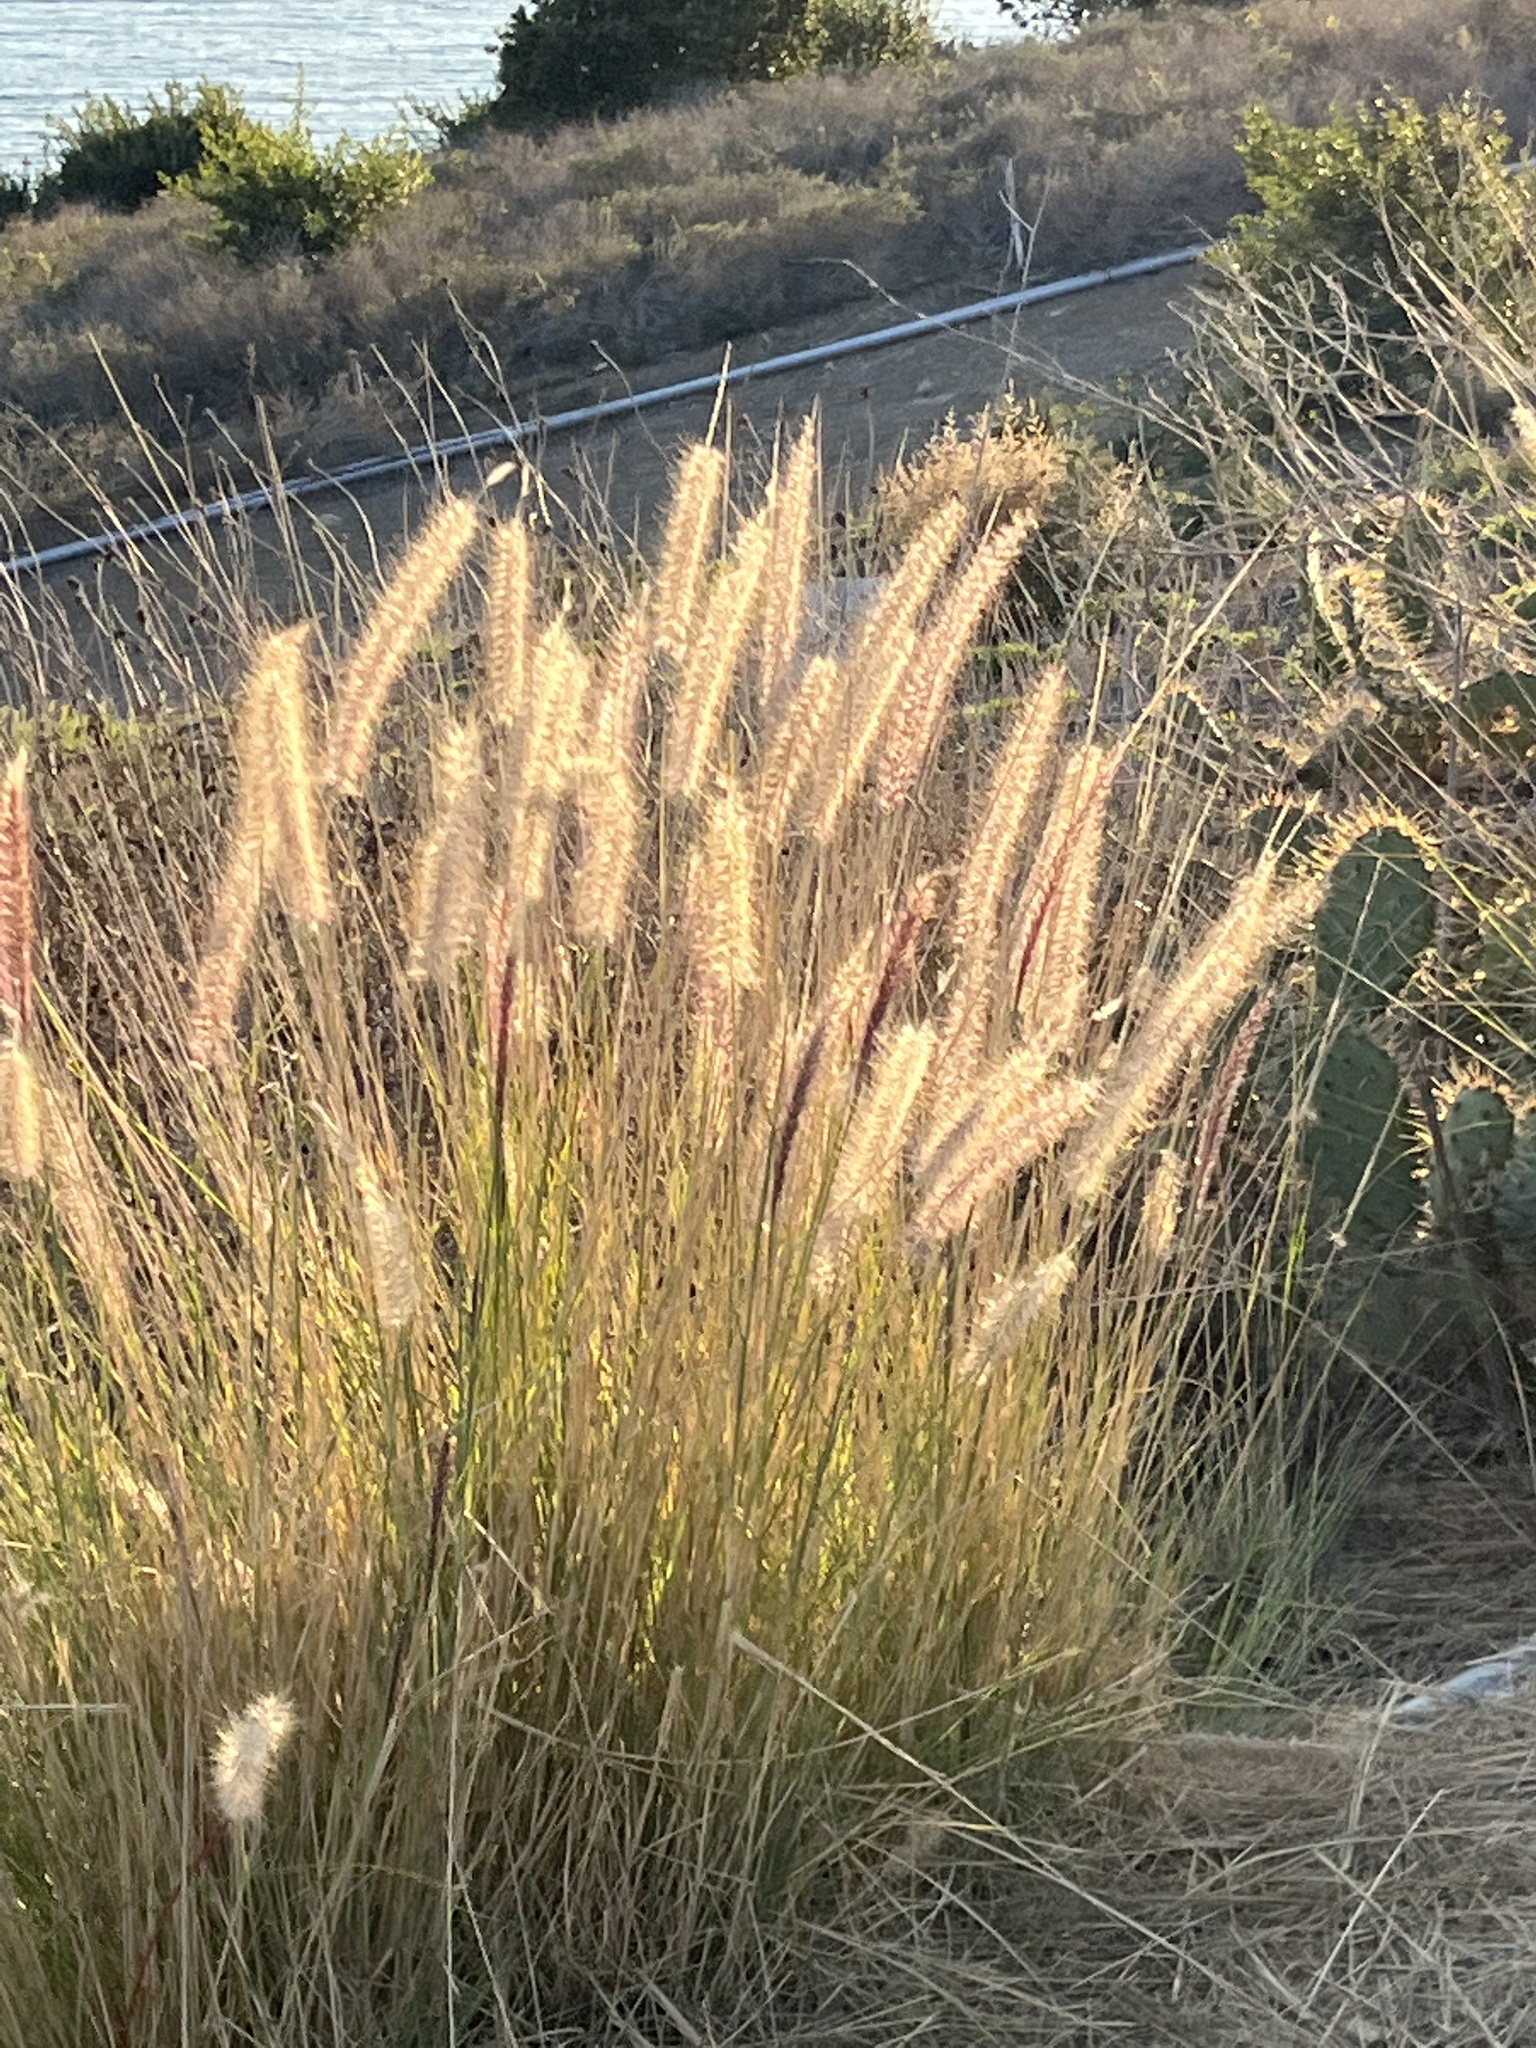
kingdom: Plantae
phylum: Tracheophyta
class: Liliopsida
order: Poales
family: Poaceae
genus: Cenchrus
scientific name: Cenchrus setaceus
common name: Crimson fountaingrass
